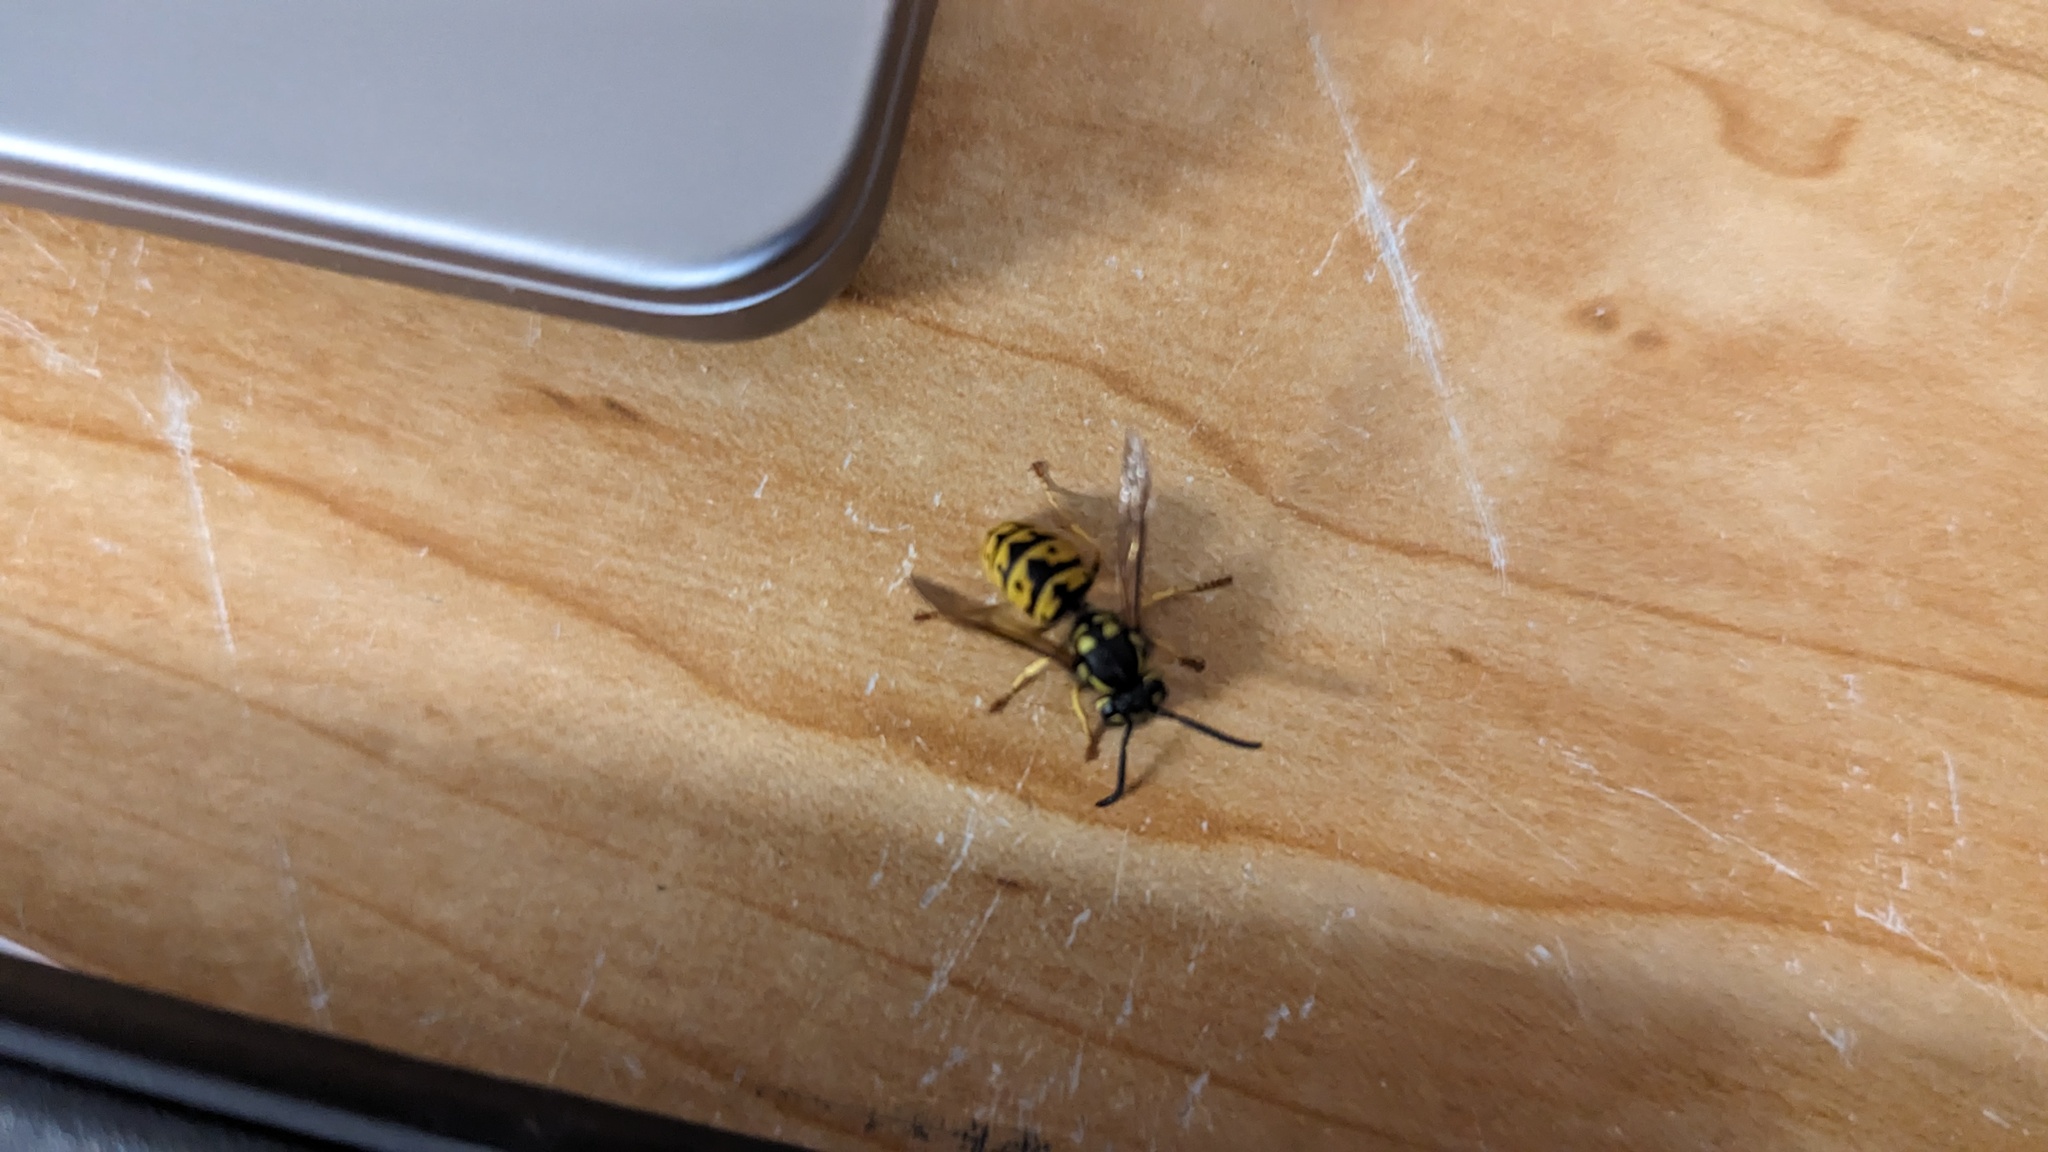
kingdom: Animalia
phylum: Arthropoda
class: Insecta
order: Hymenoptera
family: Vespidae
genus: Vespula
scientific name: Vespula germanica
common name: German wasp
